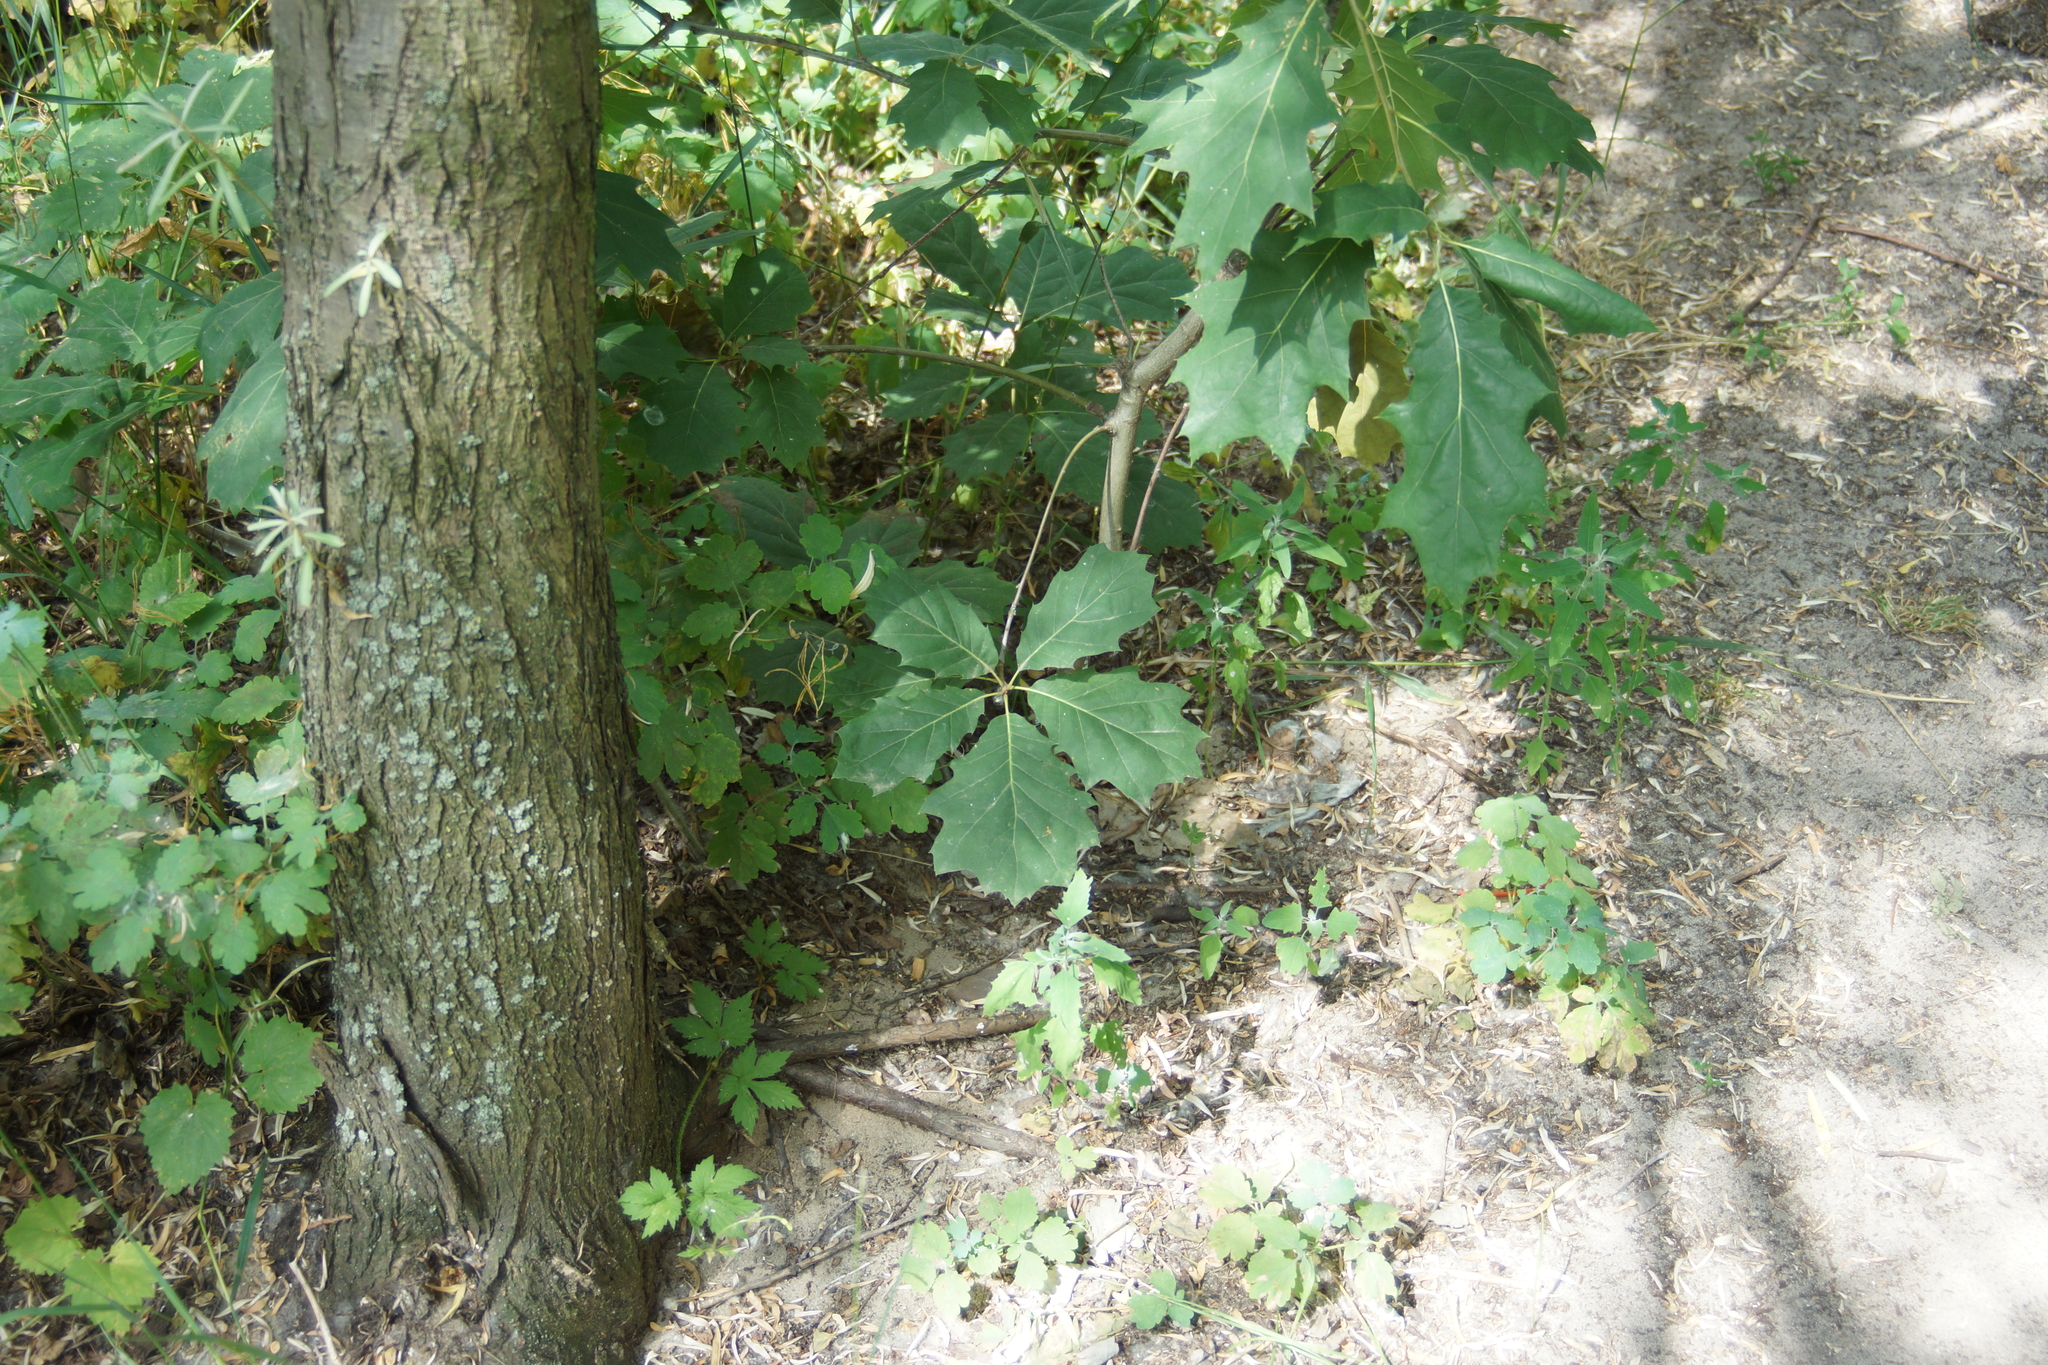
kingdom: Plantae
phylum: Tracheophyta
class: Magnoliopsida
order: Fagales
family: Fagaceae
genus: Quercus
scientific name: Quercus rubra
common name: Red oak
